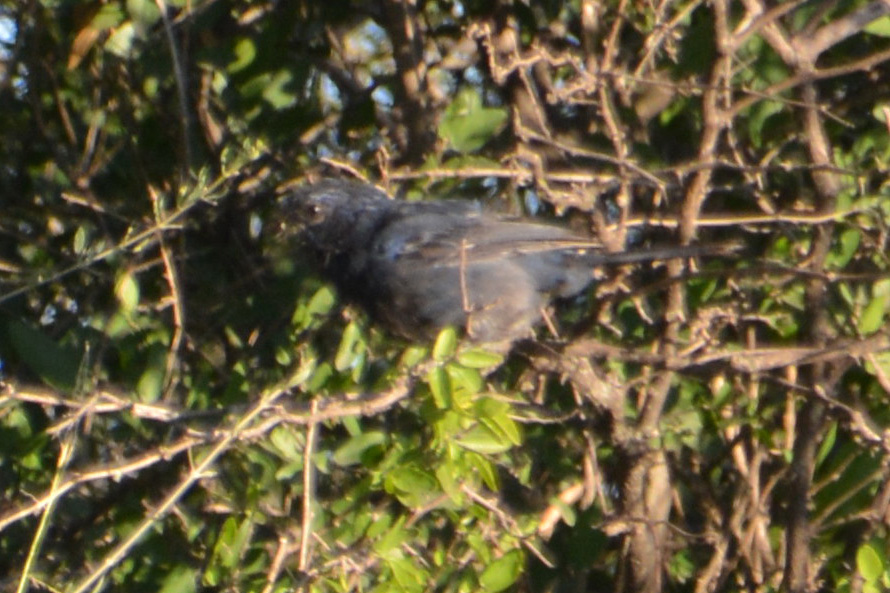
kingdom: Animalia
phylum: Chordata
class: Aves
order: Passeriformes
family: Cardinalidae
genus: Cyanoloxia
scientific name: Cyanoloxia brissonii
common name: Ultramarine grosbeak
